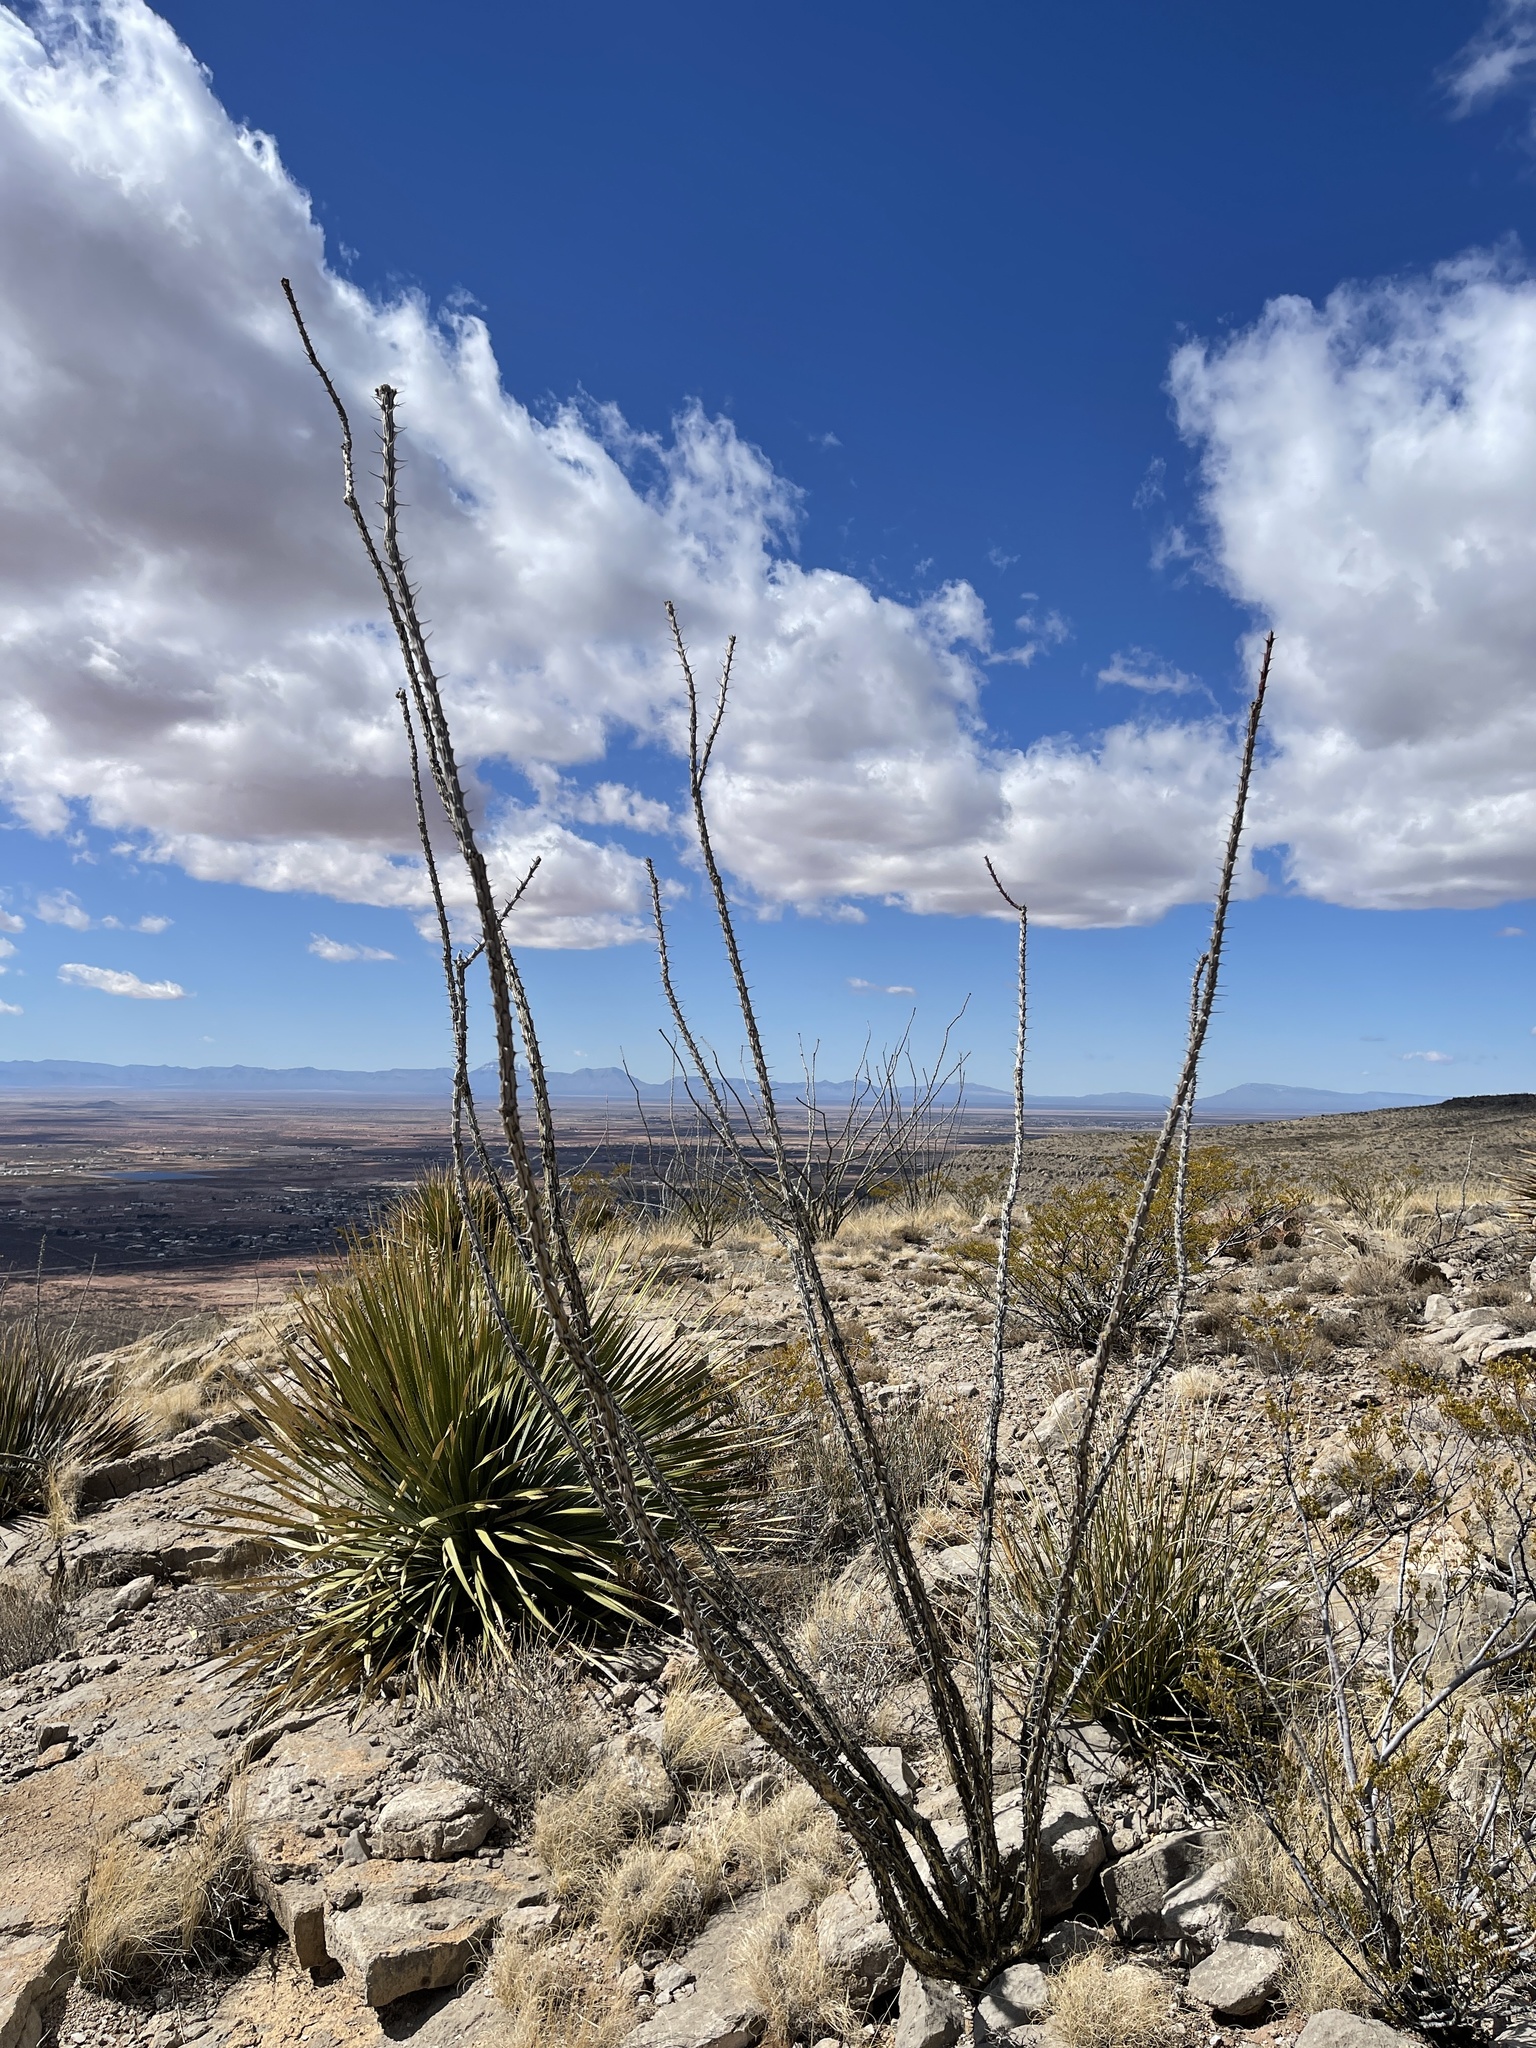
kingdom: Plantae
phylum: Tracheophyta
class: Magnoliopsida
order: Ericales
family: Fouquieriaceae
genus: Fouquieria
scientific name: Fouquieria splendens
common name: Vine-cactus
